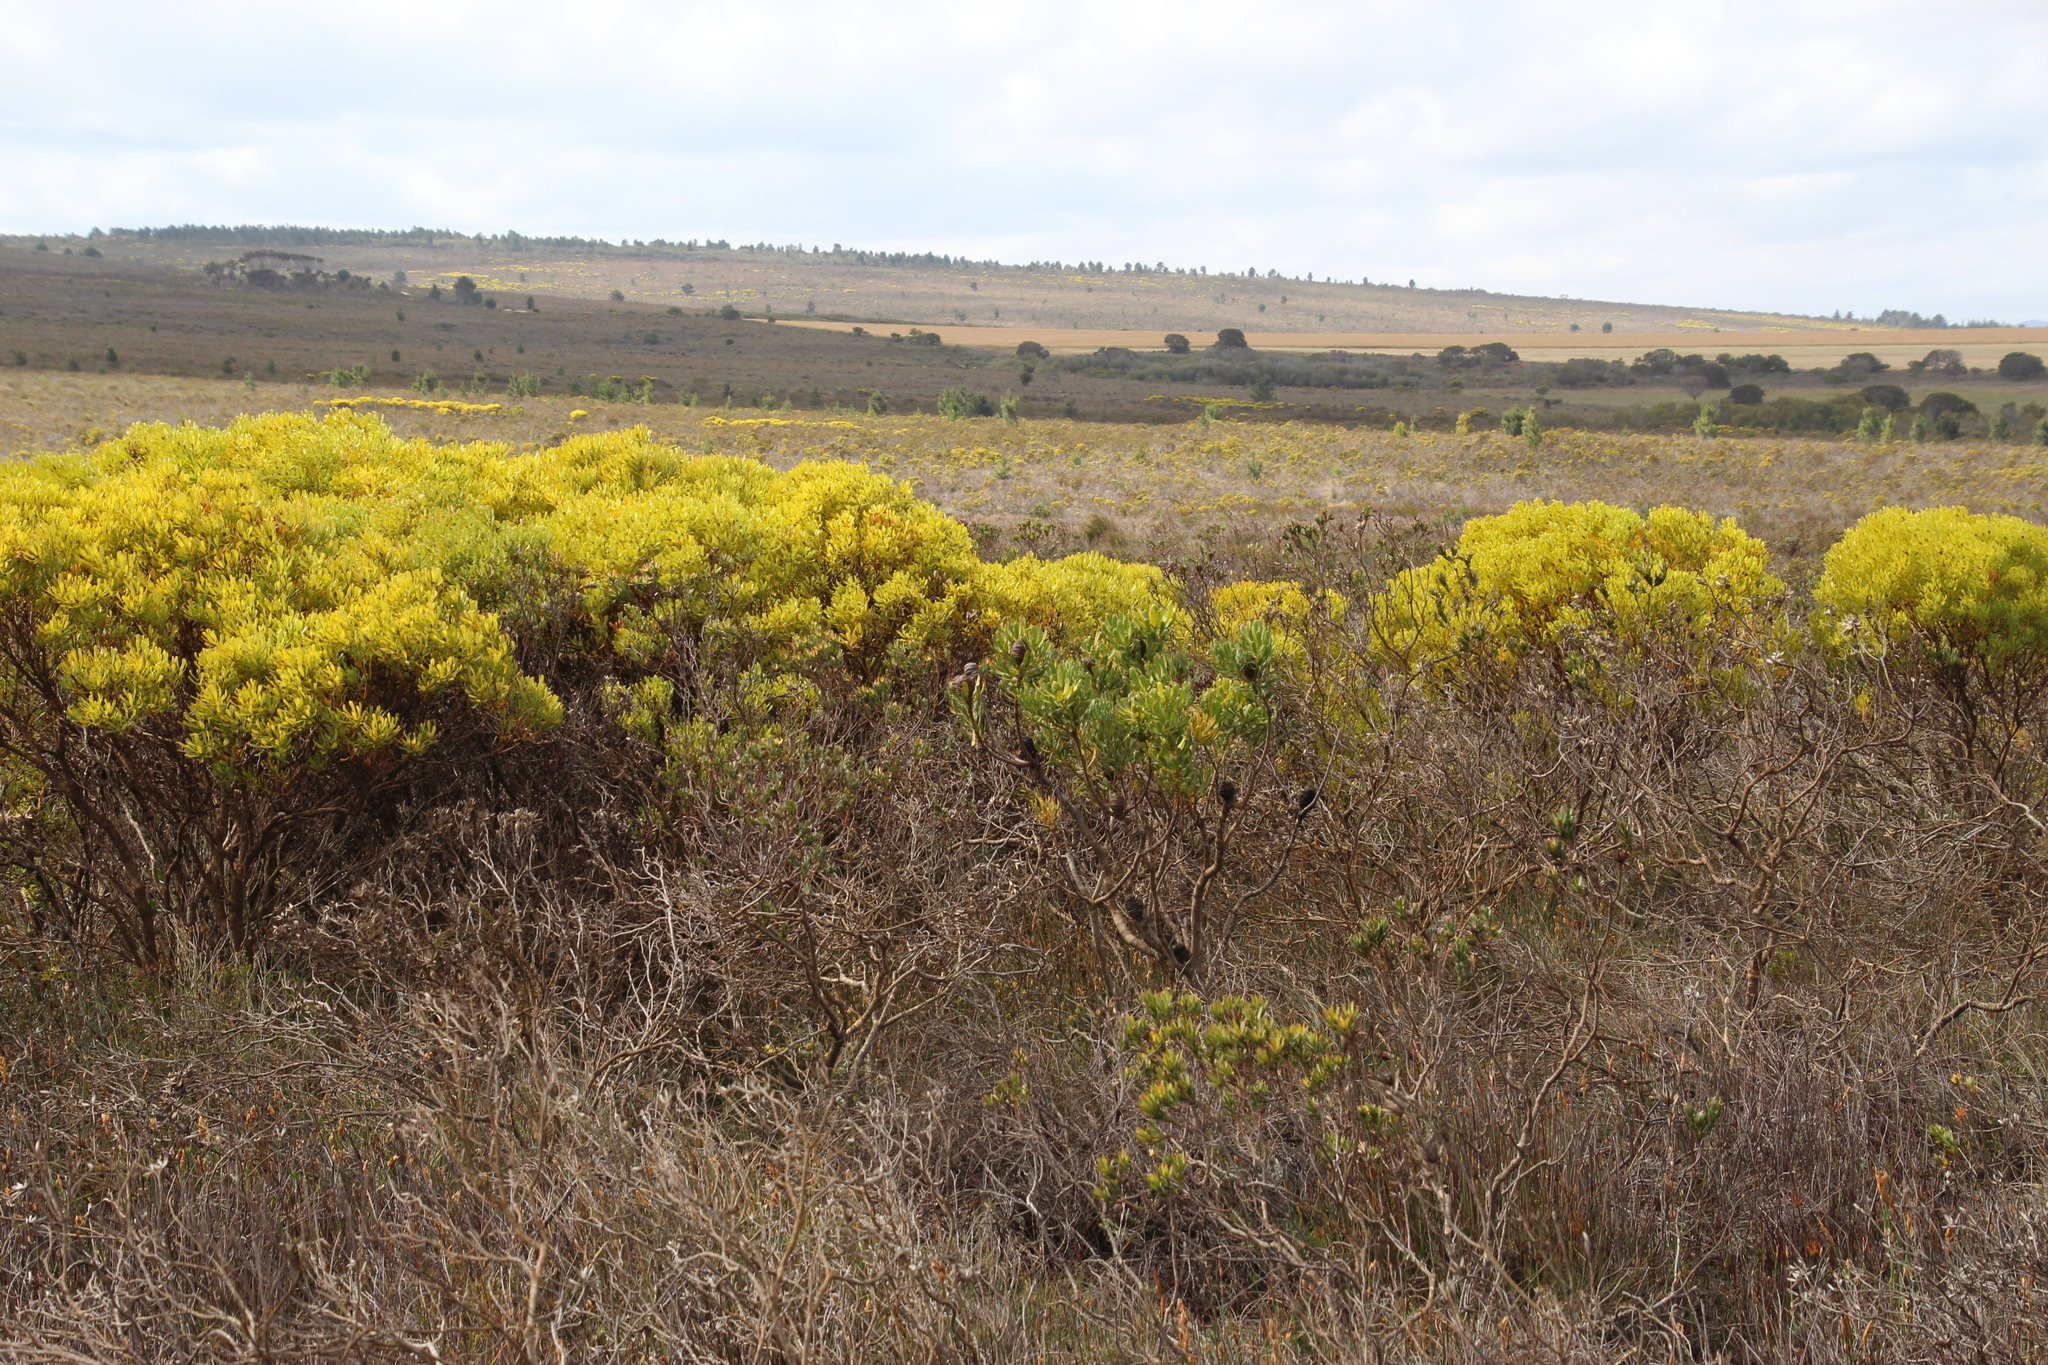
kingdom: Plantae
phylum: Tracheophyta
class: Magnoliopsida
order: Proteales
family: Proteaceae
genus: Leucadendron
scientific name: Leucadendron platyspermum
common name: Plate-seed conebush
